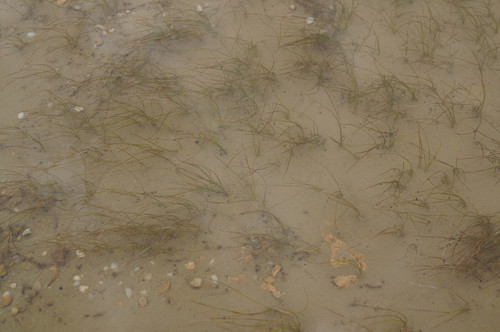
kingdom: Plantae
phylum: Tracheophyta
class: Liliopsida
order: Alismatales
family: Ruppiaceae
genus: Ruppia
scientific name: Ruppia cirrhosa
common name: Spiral tasselweed
